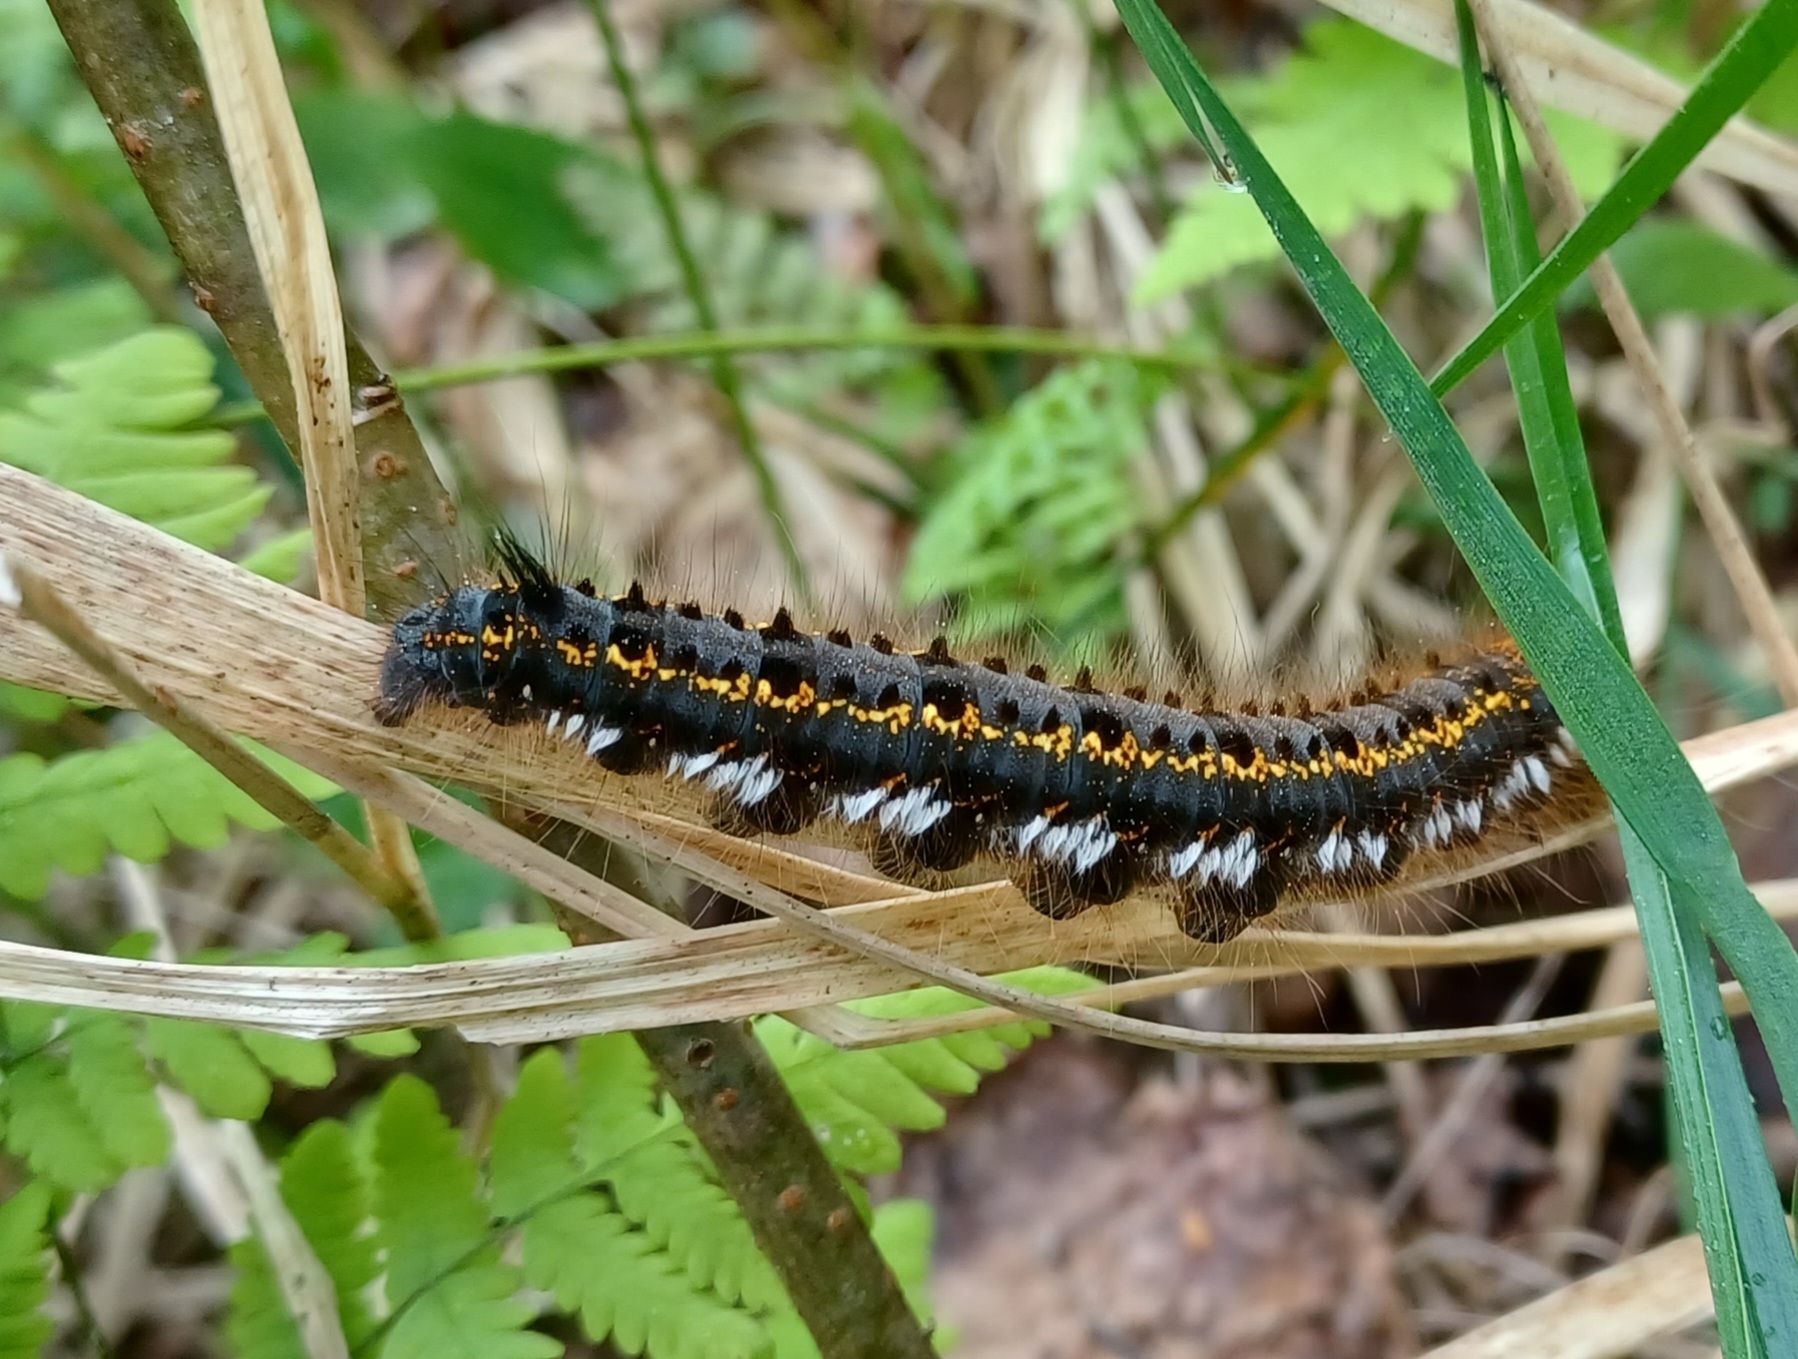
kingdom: Animalia
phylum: Arthropoda
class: Insecta
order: Lepidoptera
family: Lasiocampidae
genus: Euthrix
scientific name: Euthrix potatoria
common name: Drinker
